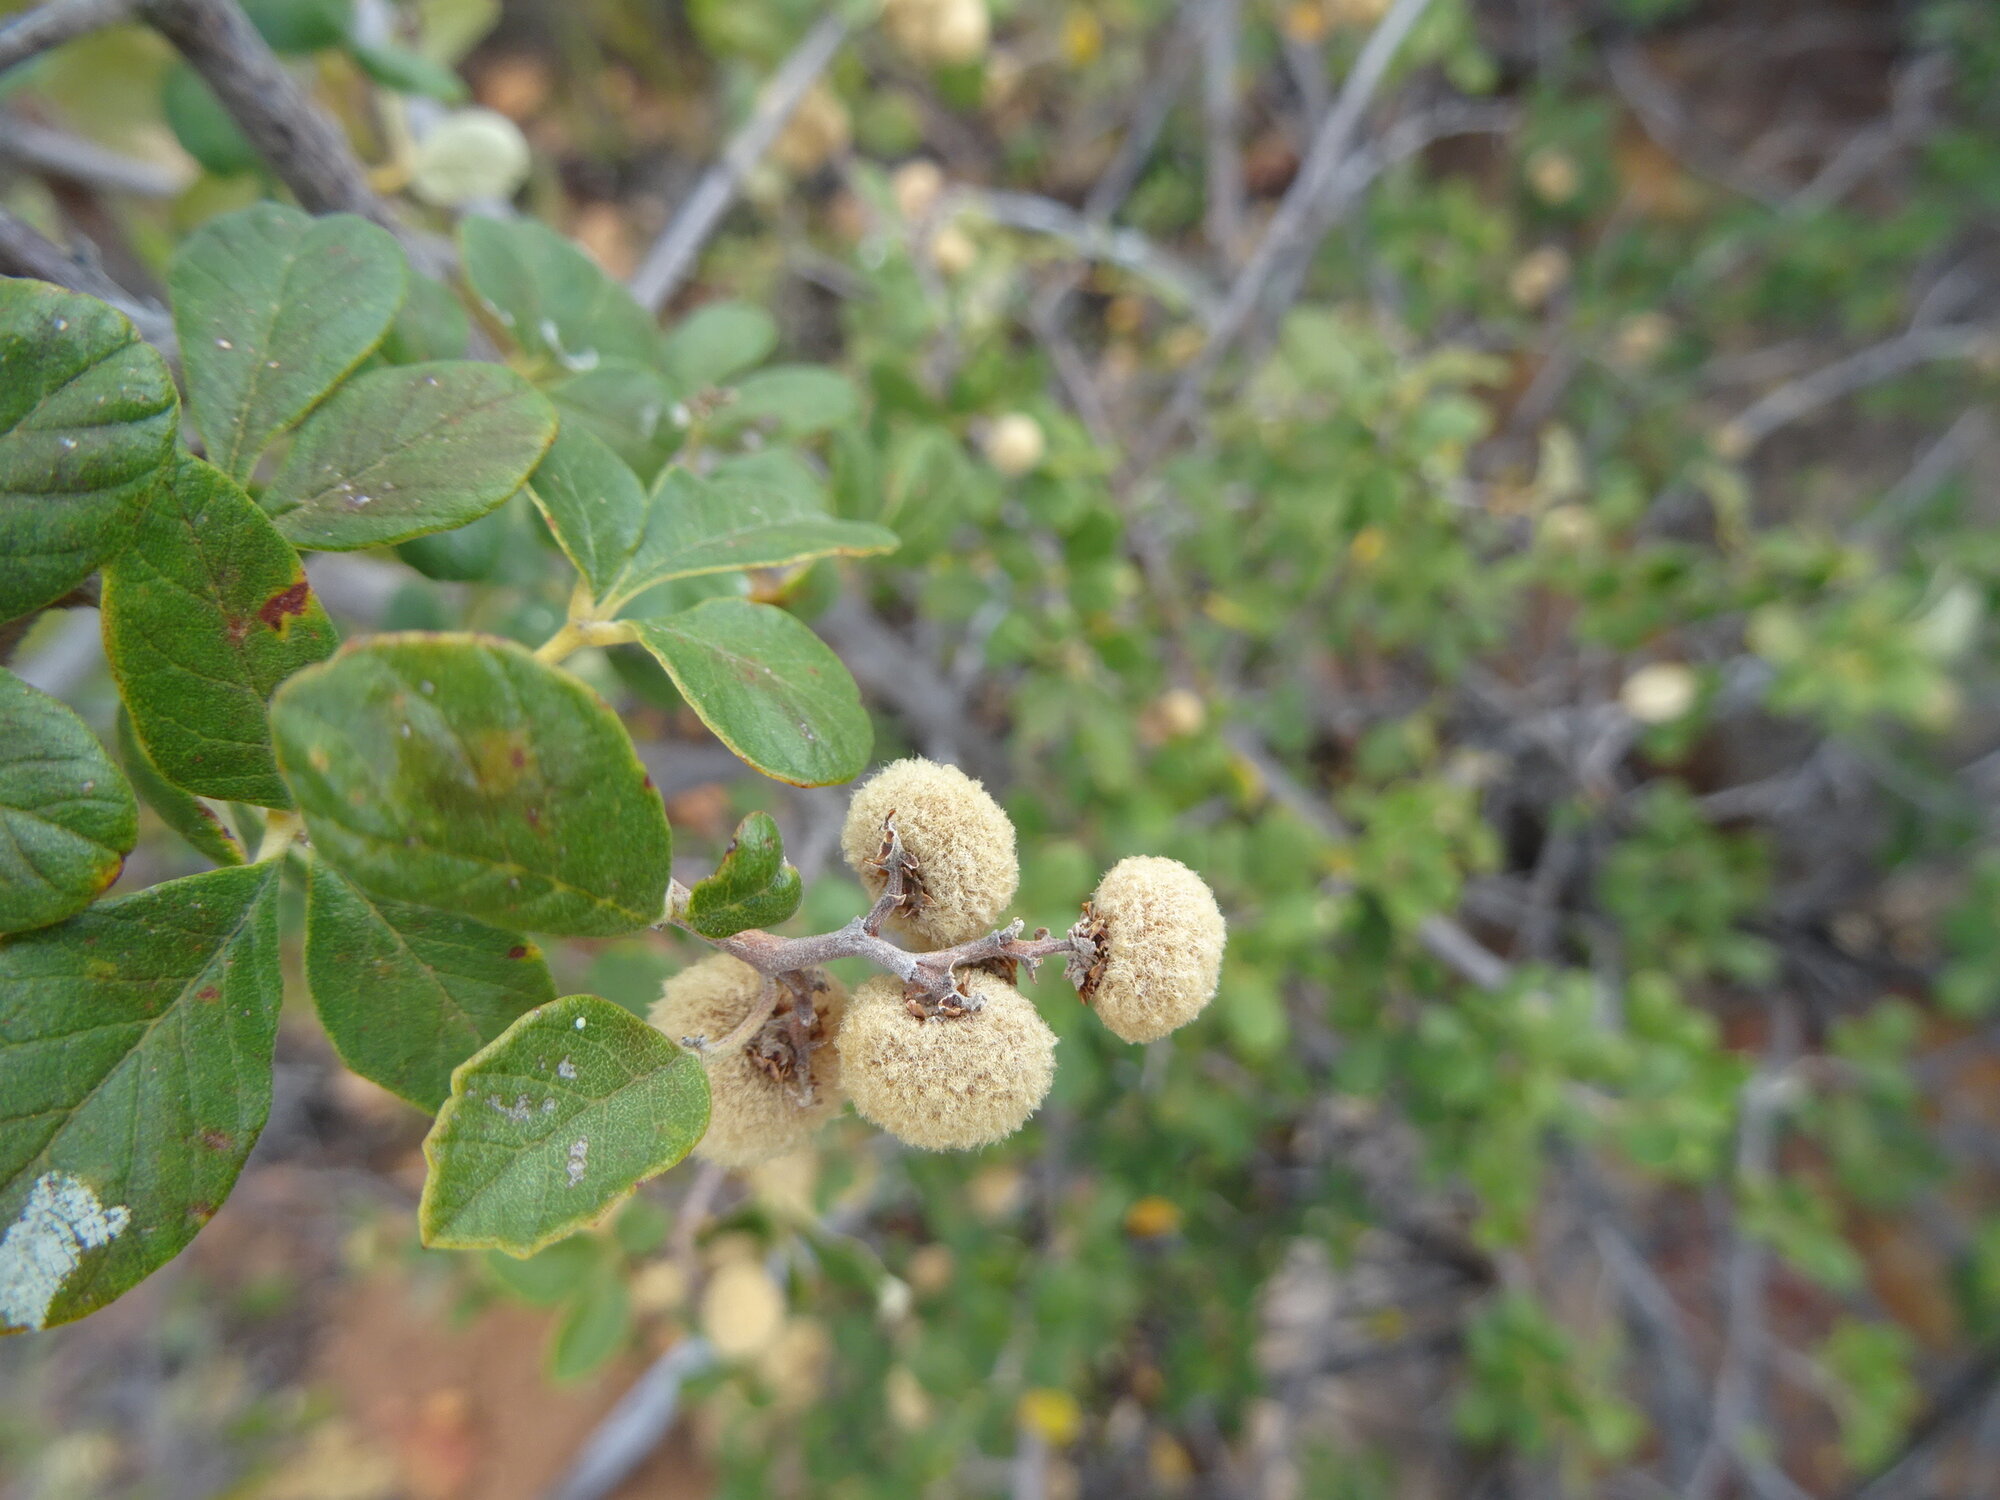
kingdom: Plantae
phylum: Tracheophyta
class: Magnoliopsida
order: Sapindales
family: Anacardiaceae
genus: Searsia
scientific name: Searsia incisa
